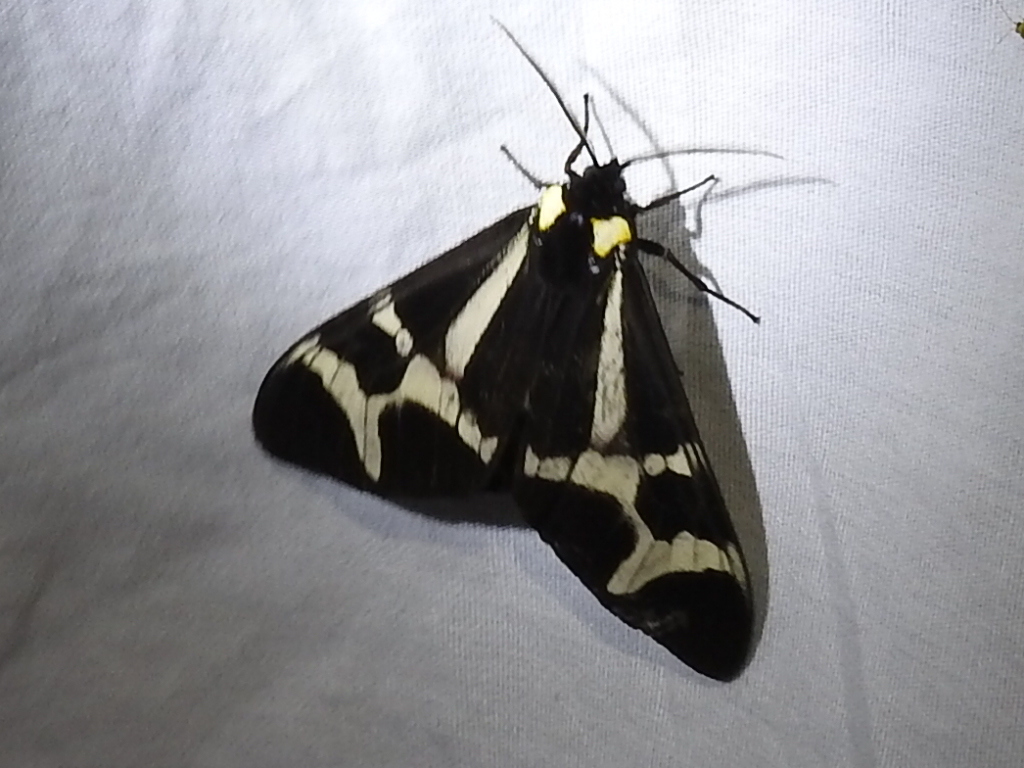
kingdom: Animalia
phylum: Arthropoda
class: Insecta
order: Lepidoptera
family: Erebidae
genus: Dysschema
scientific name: Dysschema howardi
